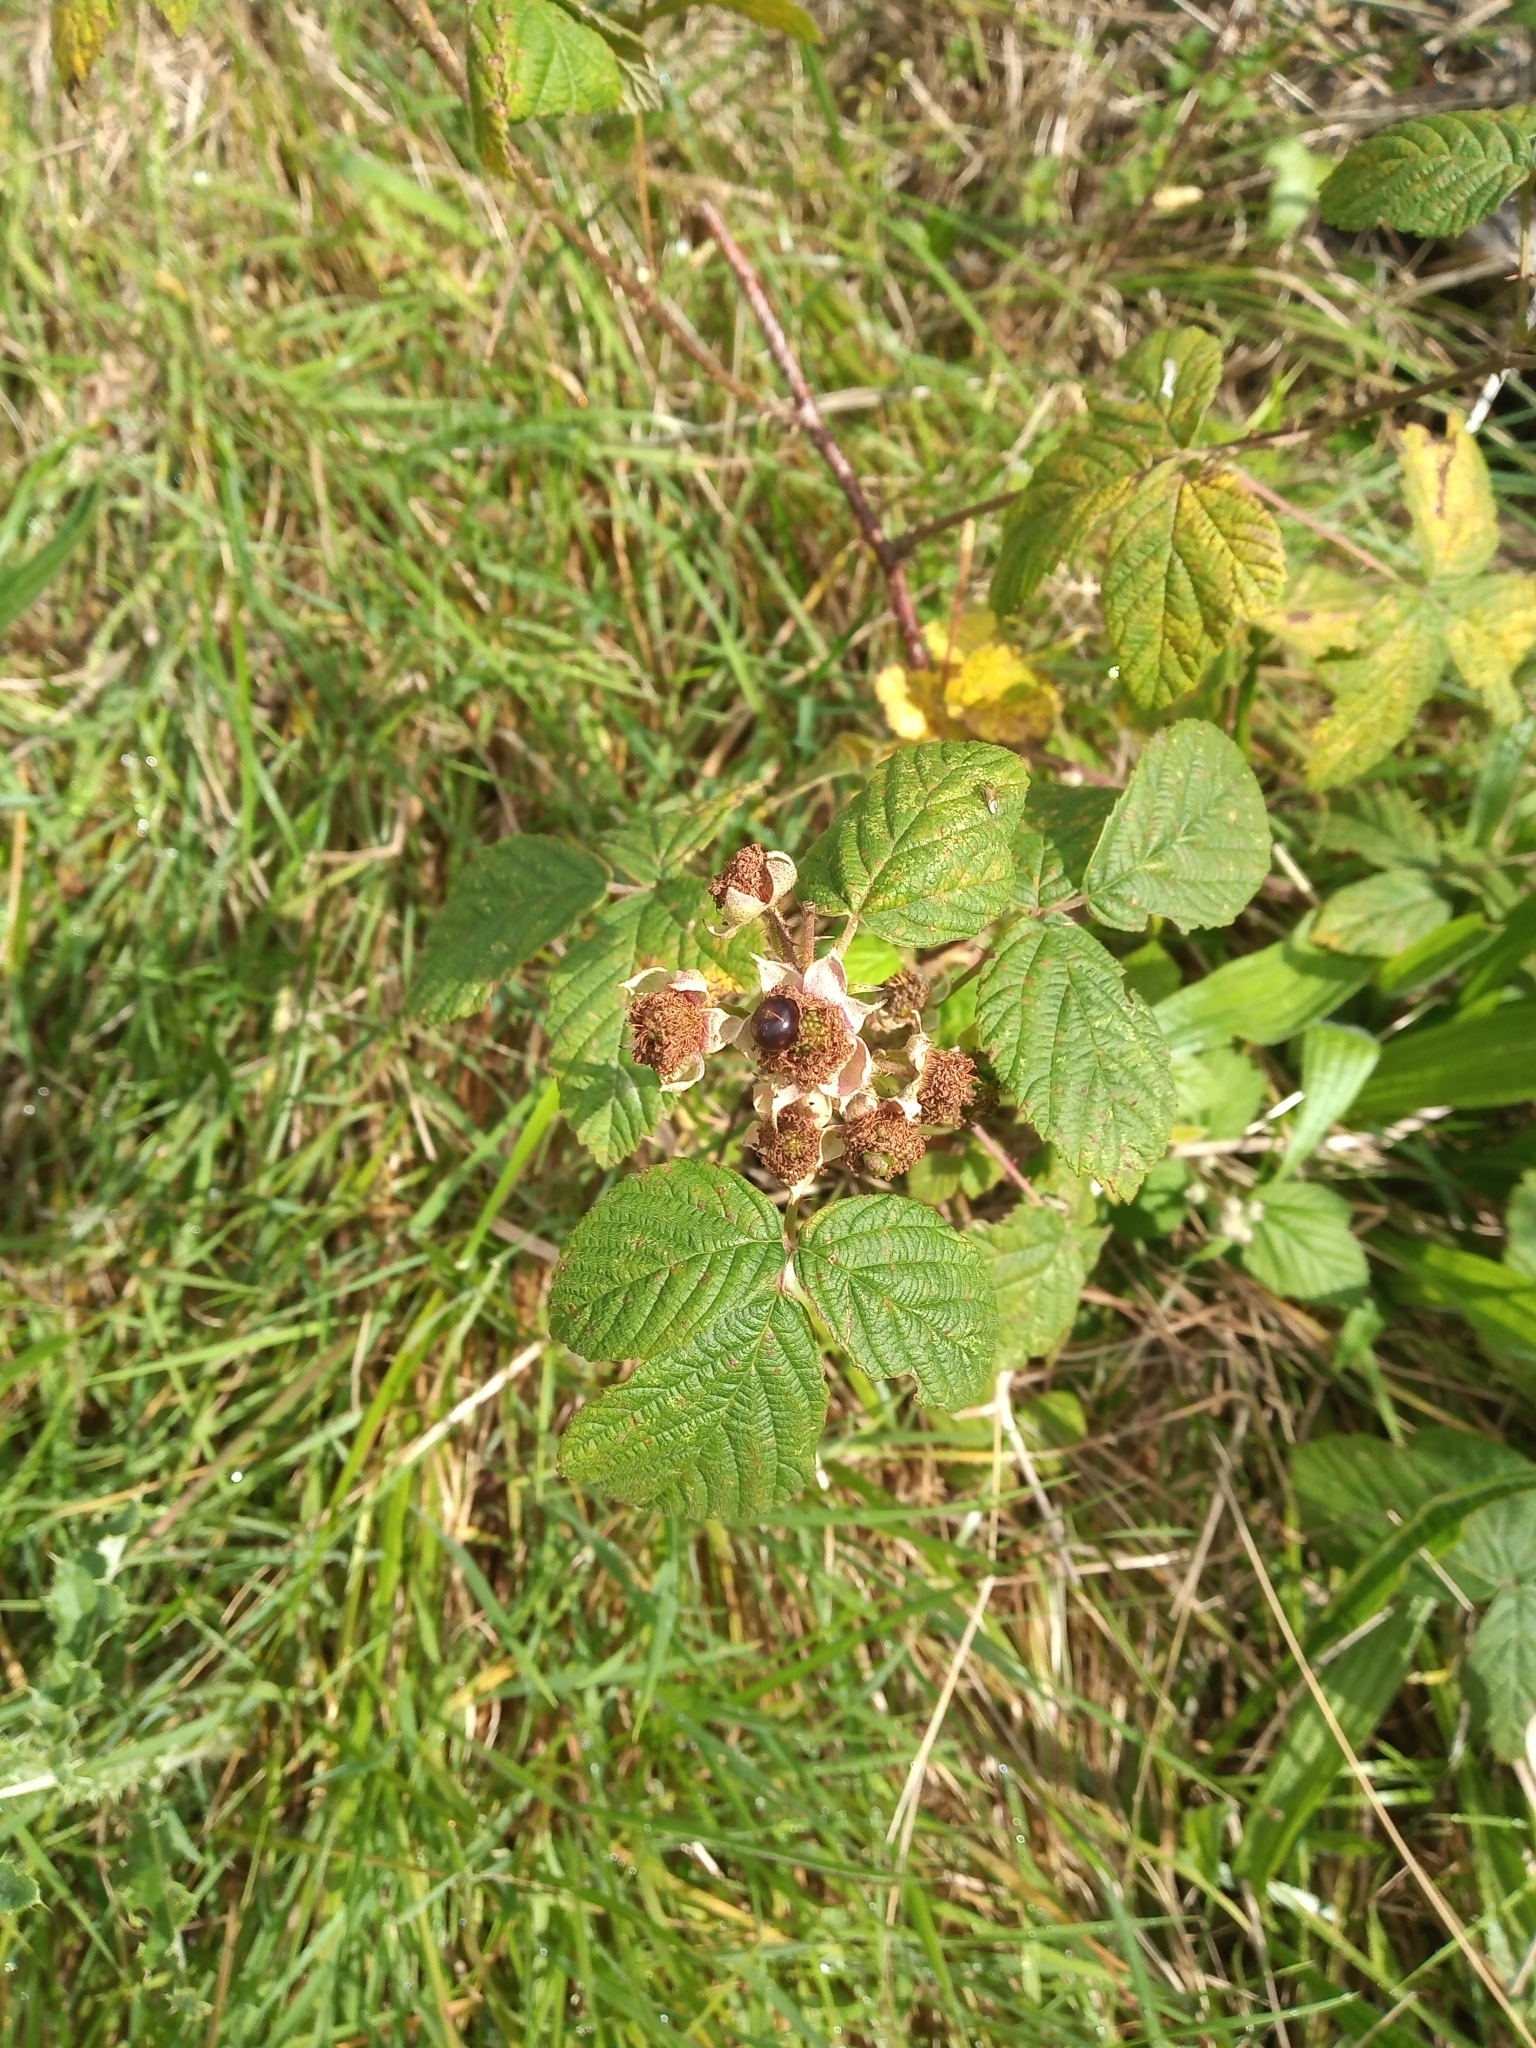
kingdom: Plantae
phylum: Tracheophyta
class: Magnoliopsida
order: Rosales
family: Rosaceae
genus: Rubus
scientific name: Rubus horrefactus
